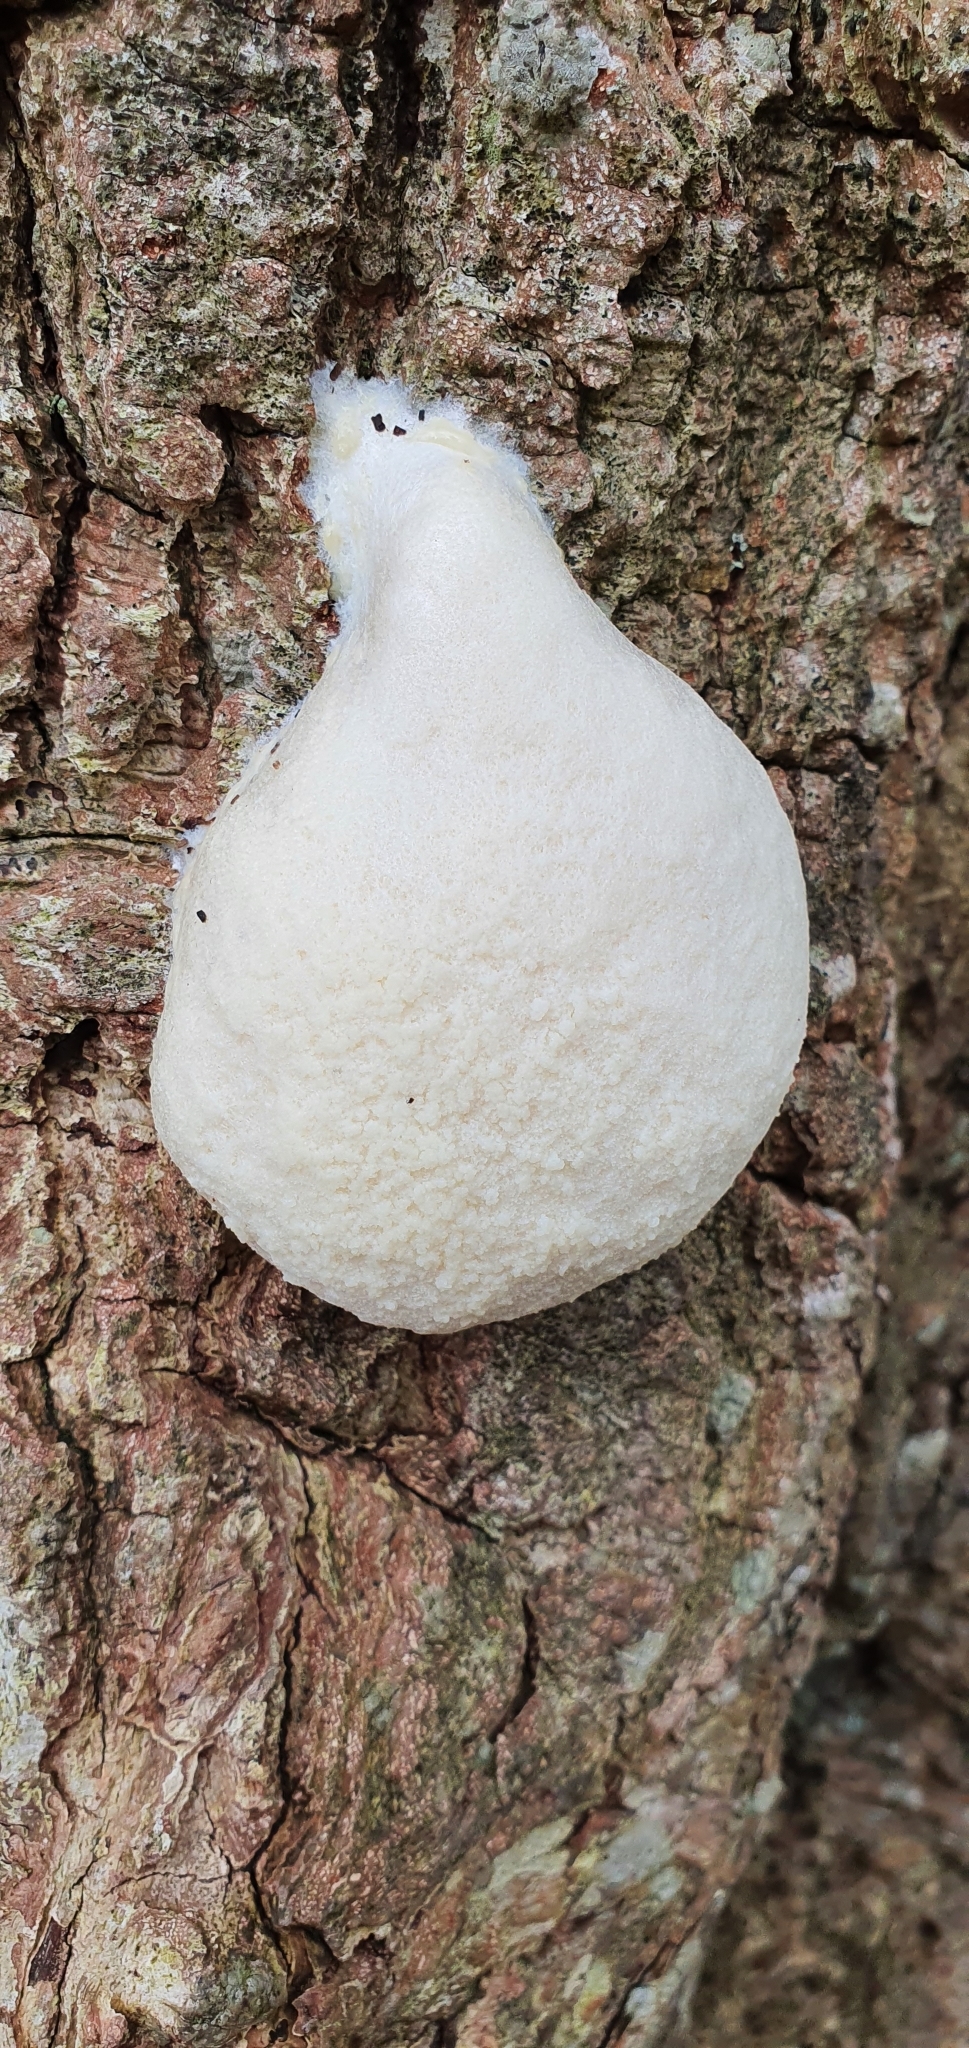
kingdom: Protozoa
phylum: Mycetozoa
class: Myxomycetes
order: Cribrariales
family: Tubiferaceae
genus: Reticularia
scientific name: Reticularia lycoperdon
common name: False puffball
